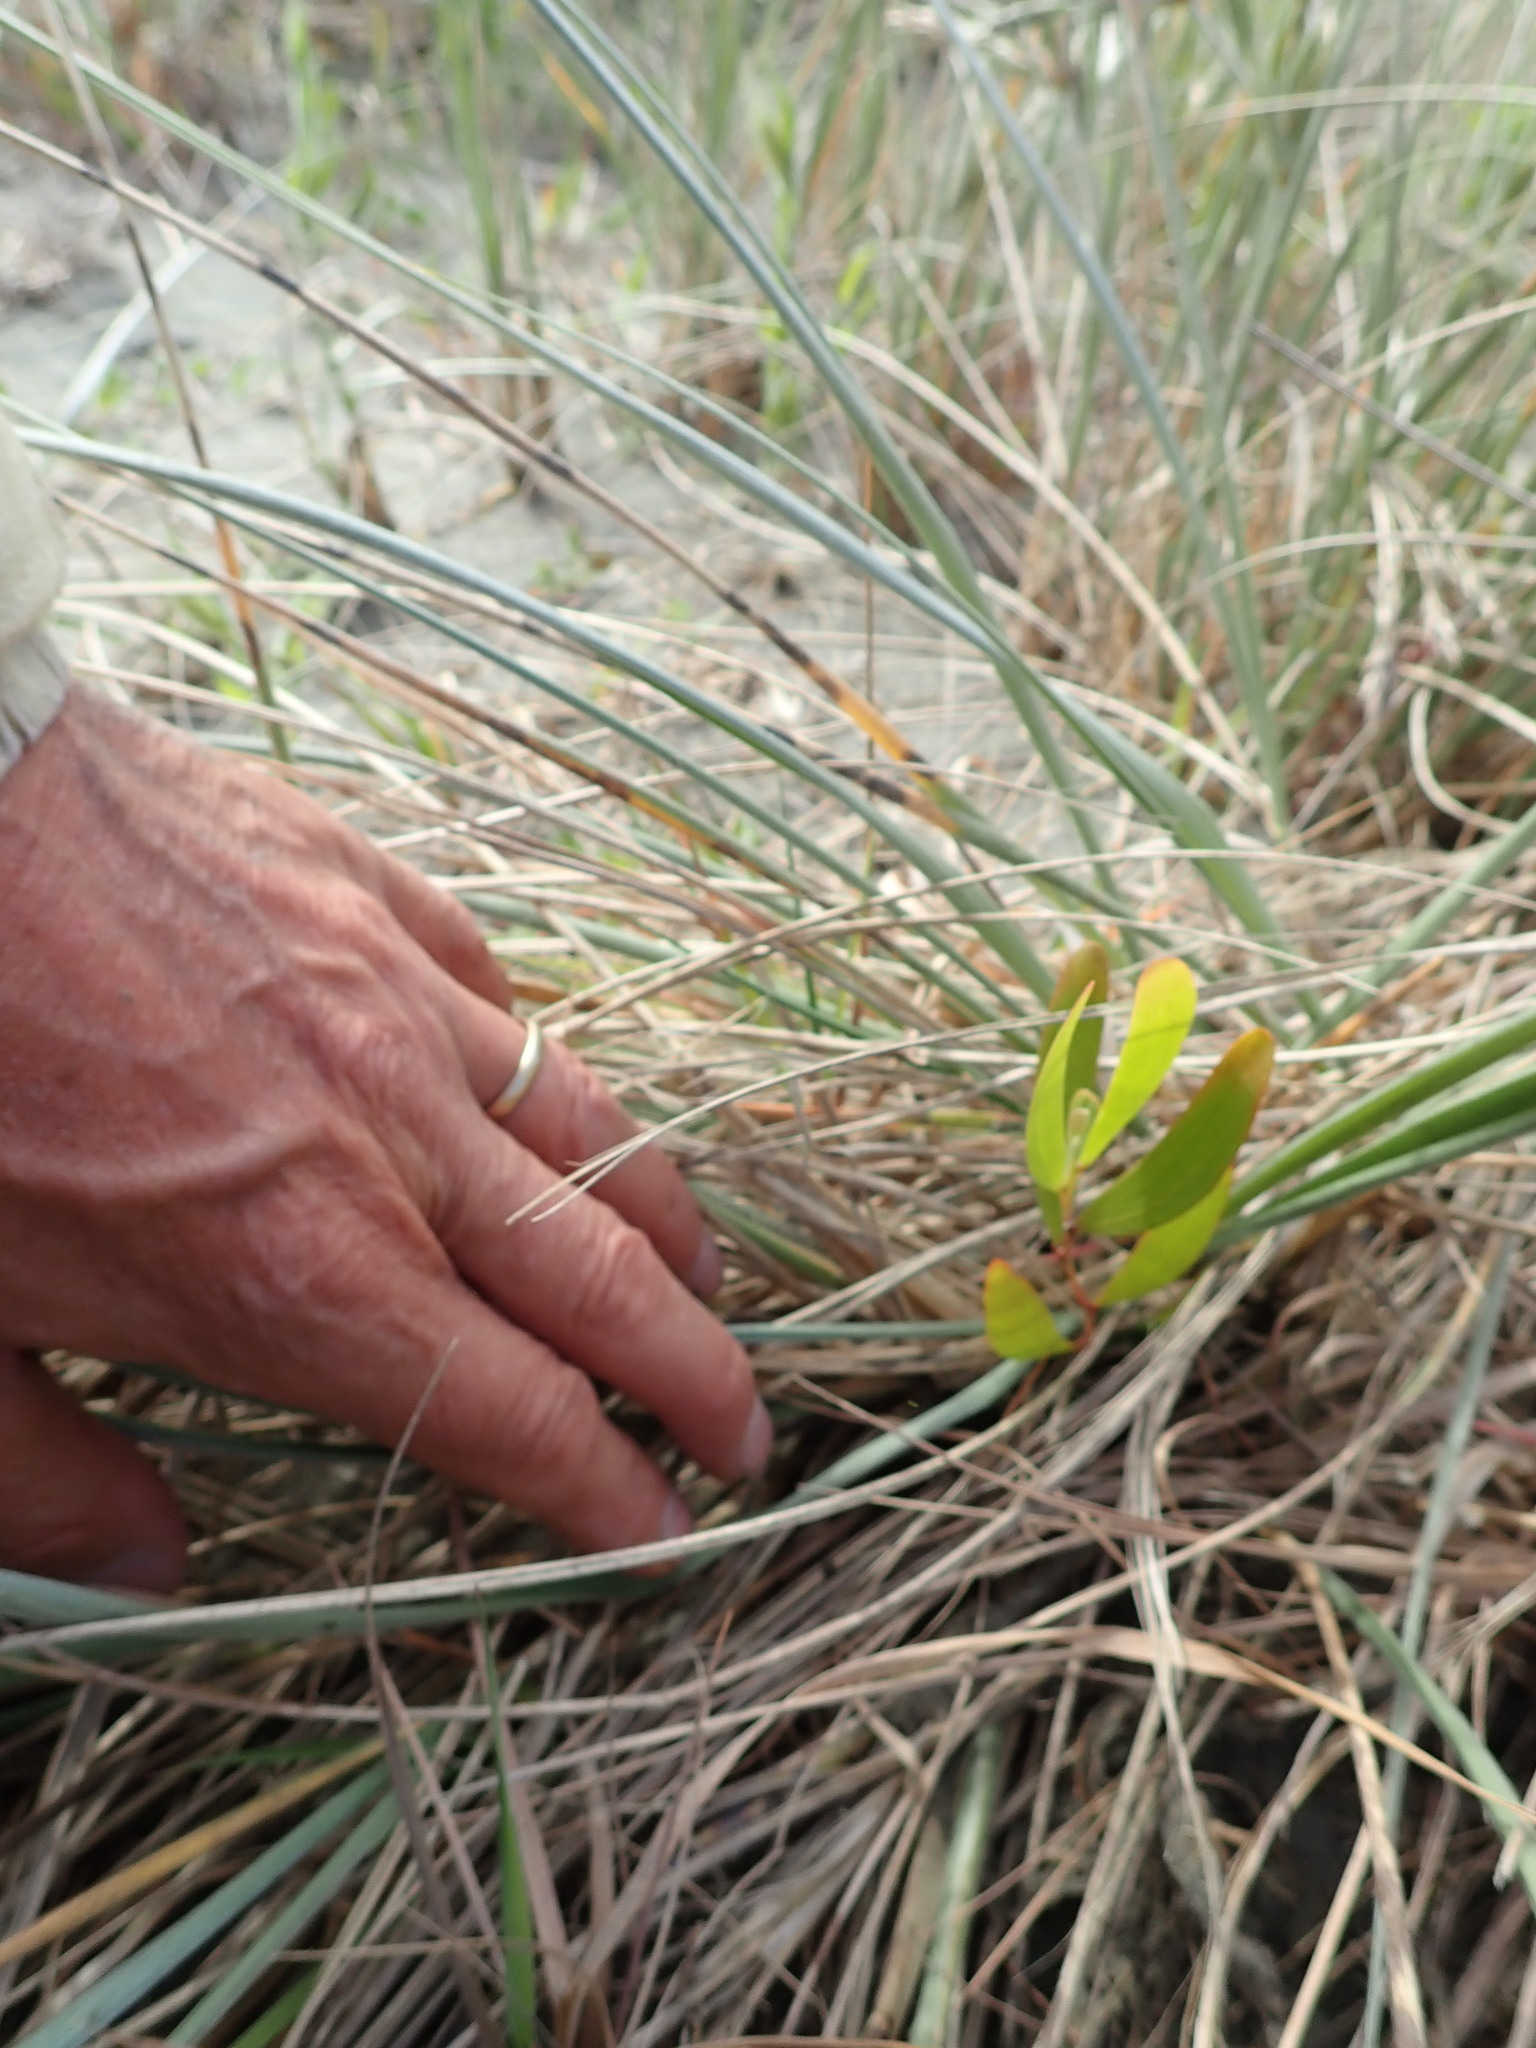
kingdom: Plantae
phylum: Tracheophyta
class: Magnoliopsida
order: Fabales
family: Fabaceae
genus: Acacia
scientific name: Acacia longifolia
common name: Sydney golden wattle
